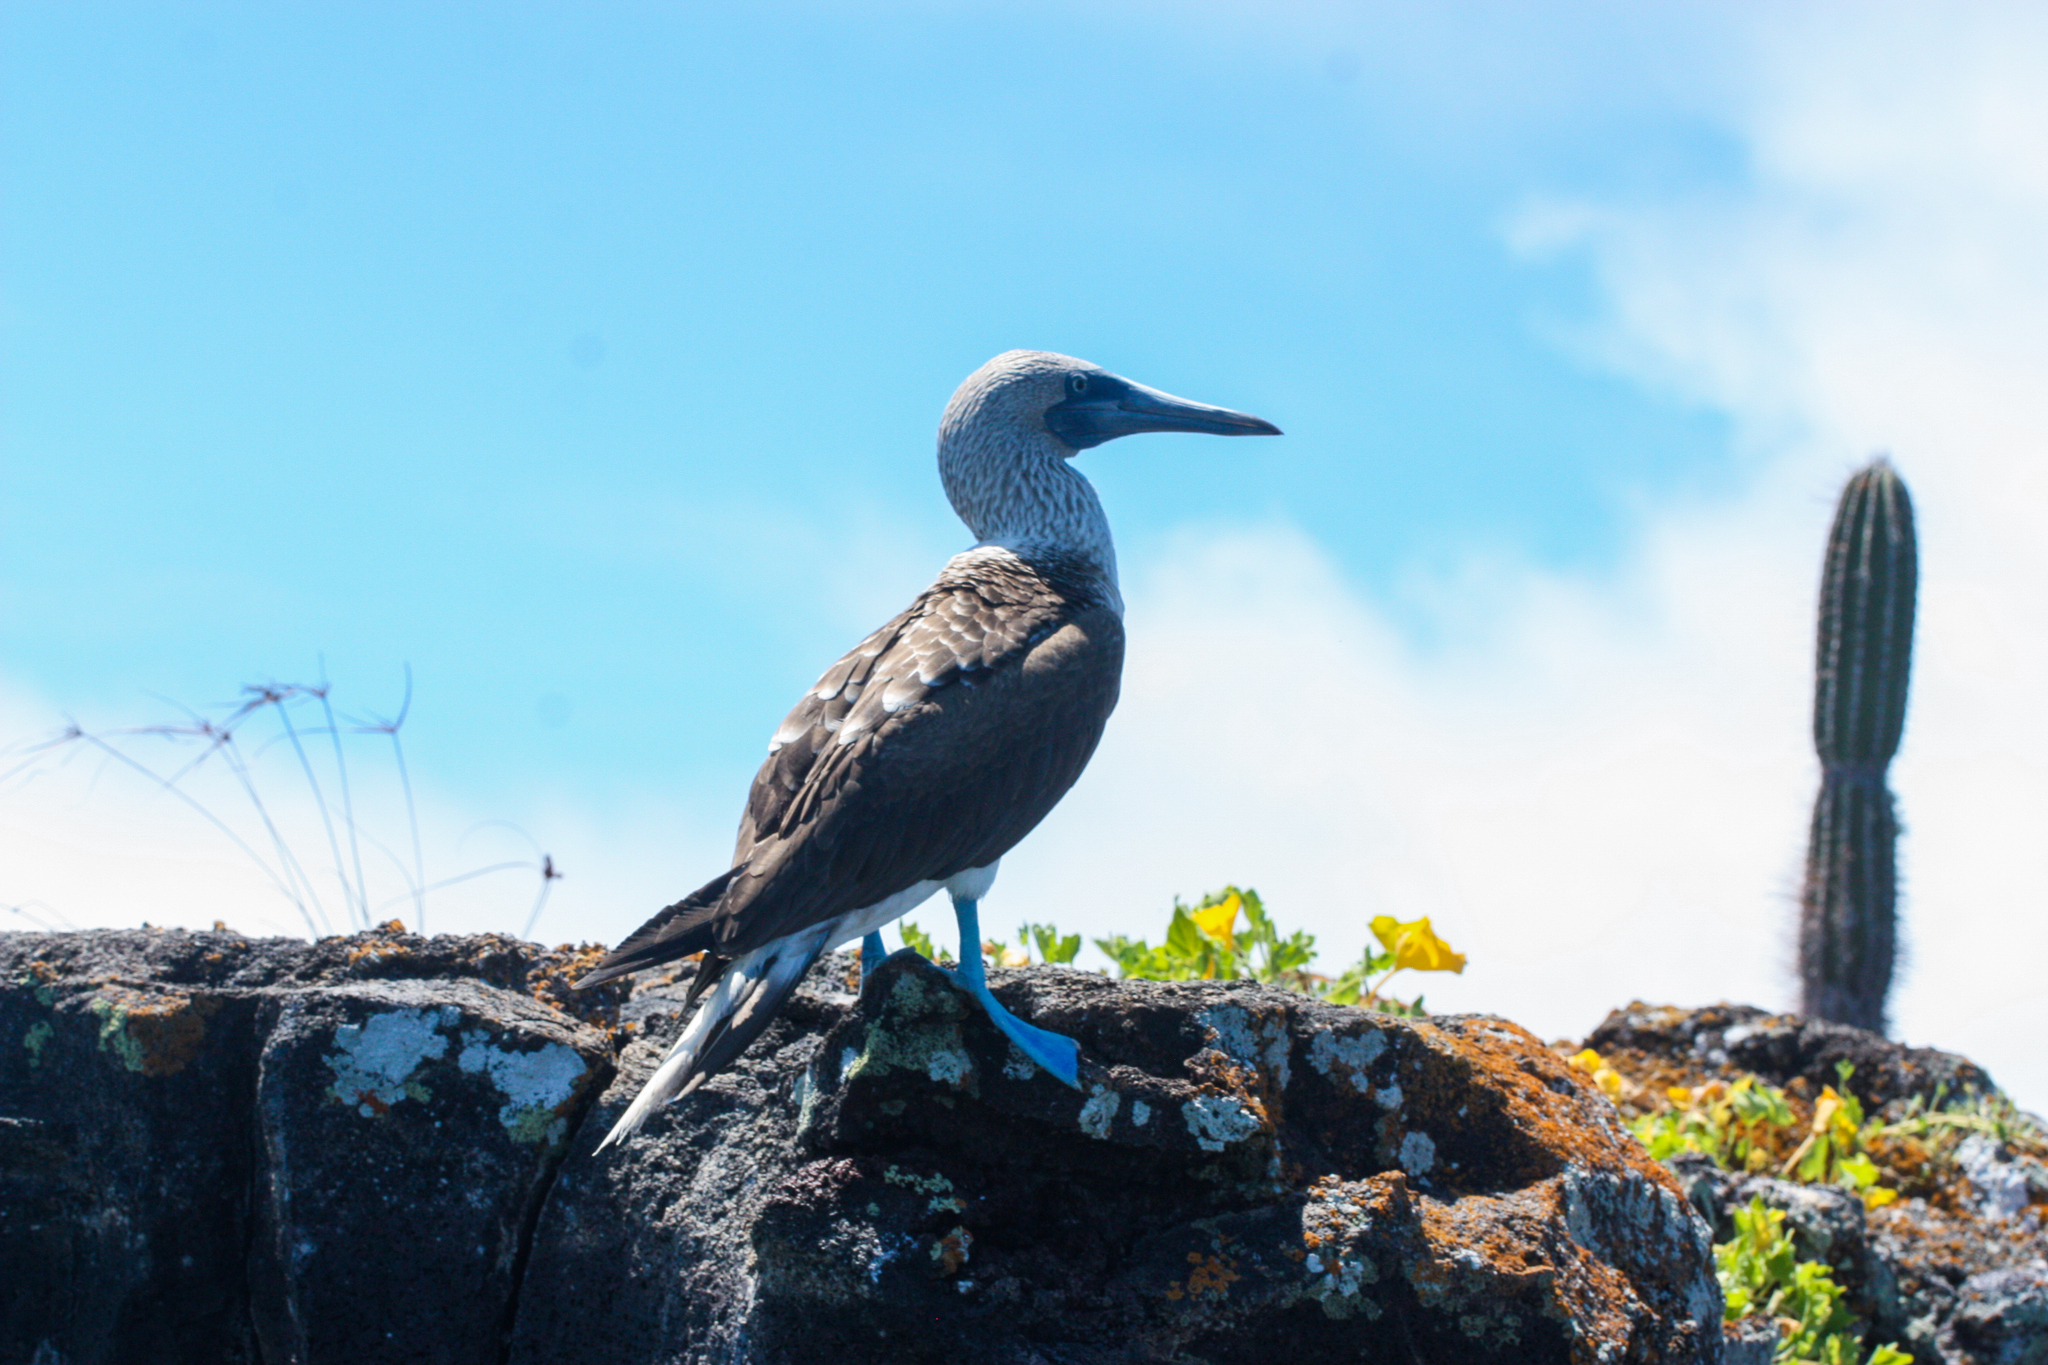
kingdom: Animalia
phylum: Chordata
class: Aves
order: Suliformes
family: Sulidae
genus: Sula
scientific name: Sula nebouxii
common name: Blue-footed booby
